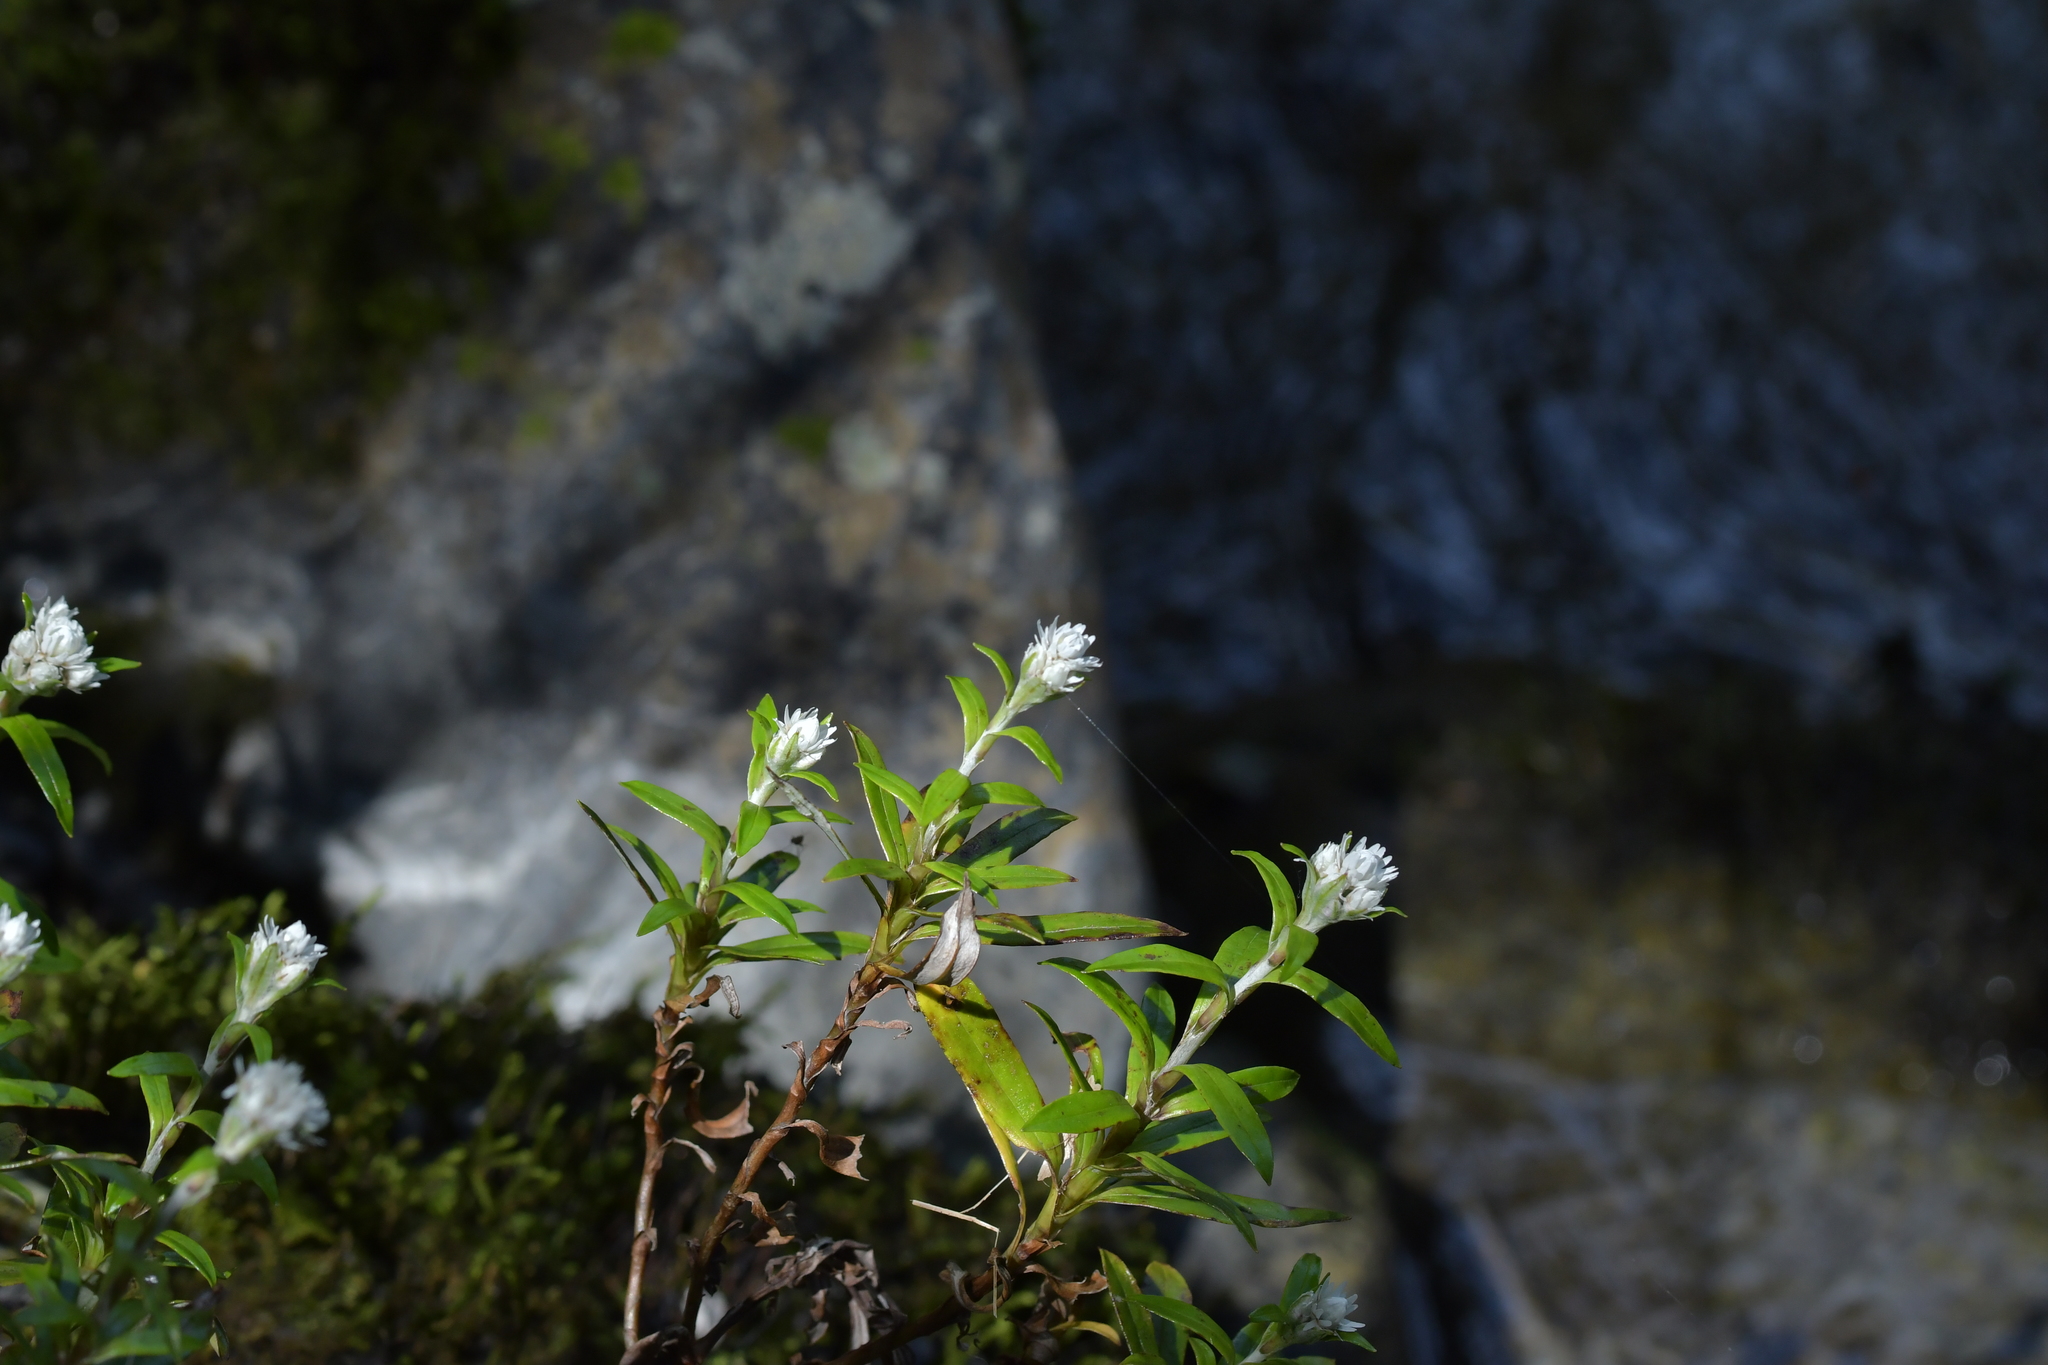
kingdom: Plantae
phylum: Tracheophyta
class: Magnoliopsida
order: Asterales
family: Asteraceae
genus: Anaphalioides
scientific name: Anaphalioides trinervis
